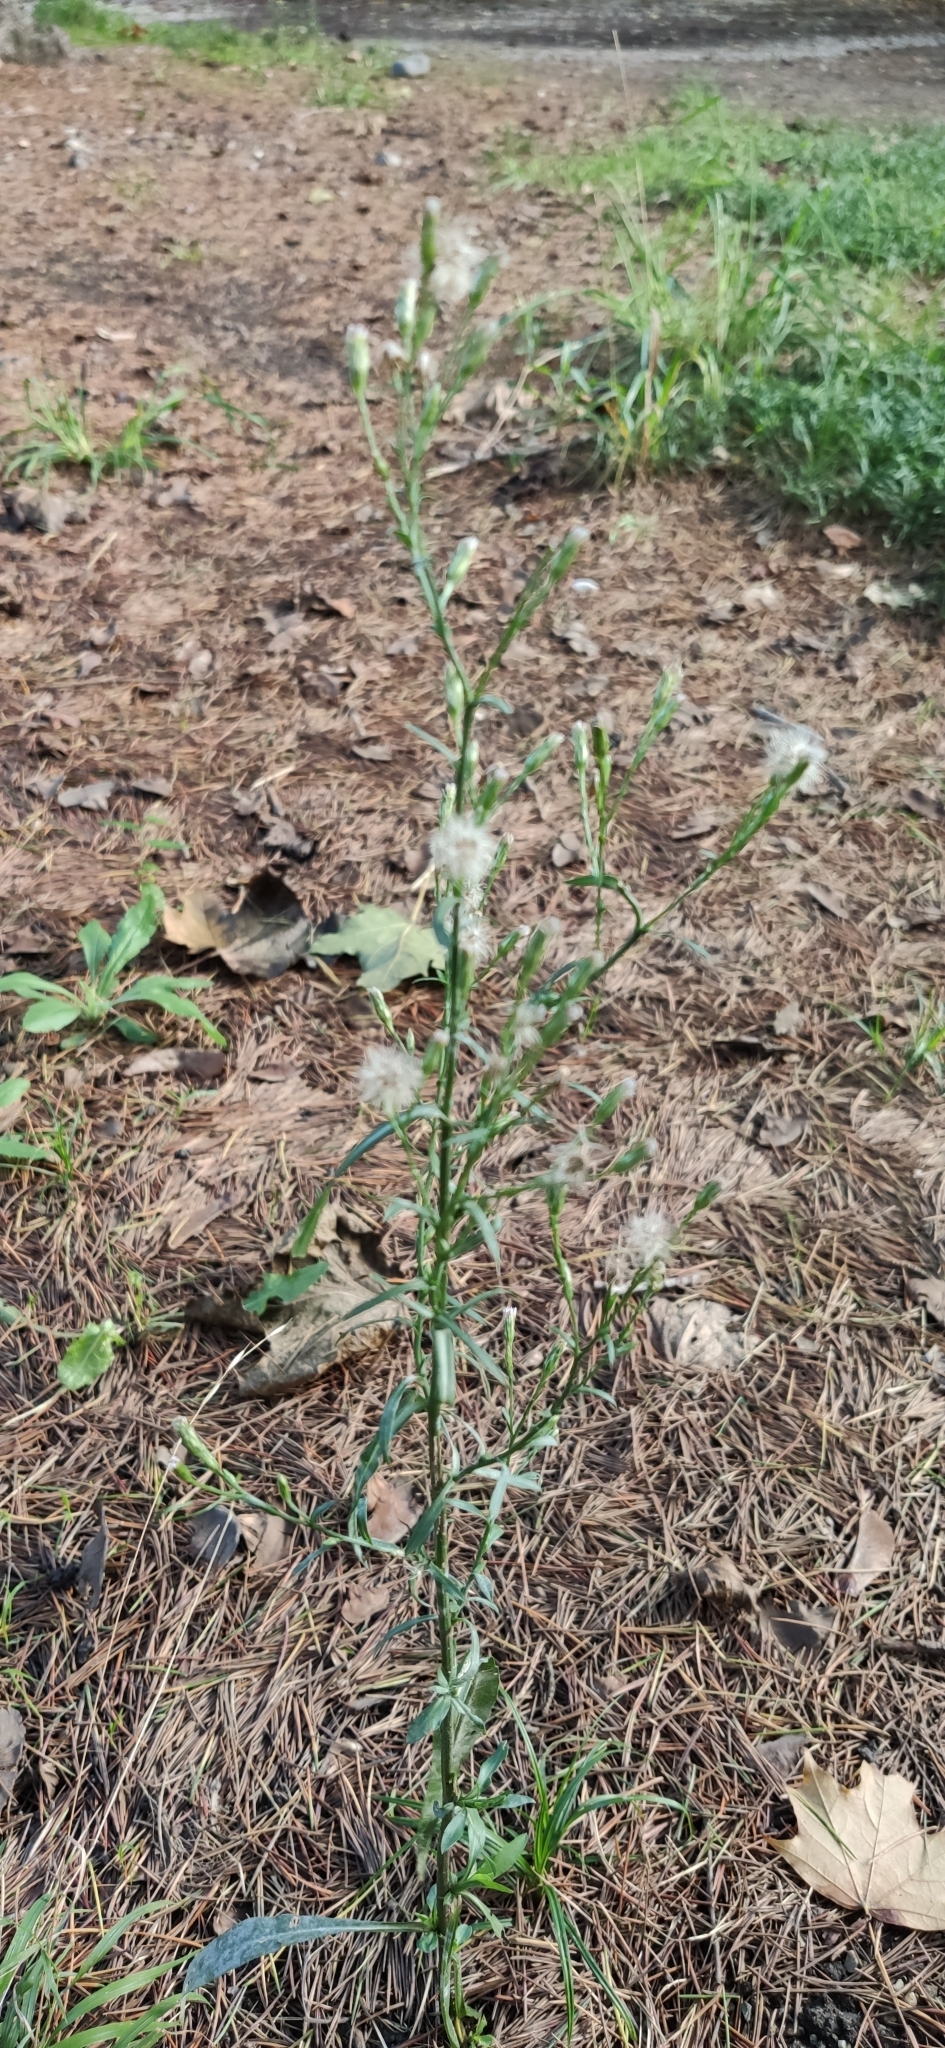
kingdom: Plantae
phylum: Tracheophyta
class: Magnoliopsida
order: Asterales
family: Asteraceae
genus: Symphyotrichum
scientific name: Symphyotrichum subulatum
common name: Annual saltmarsh aster
